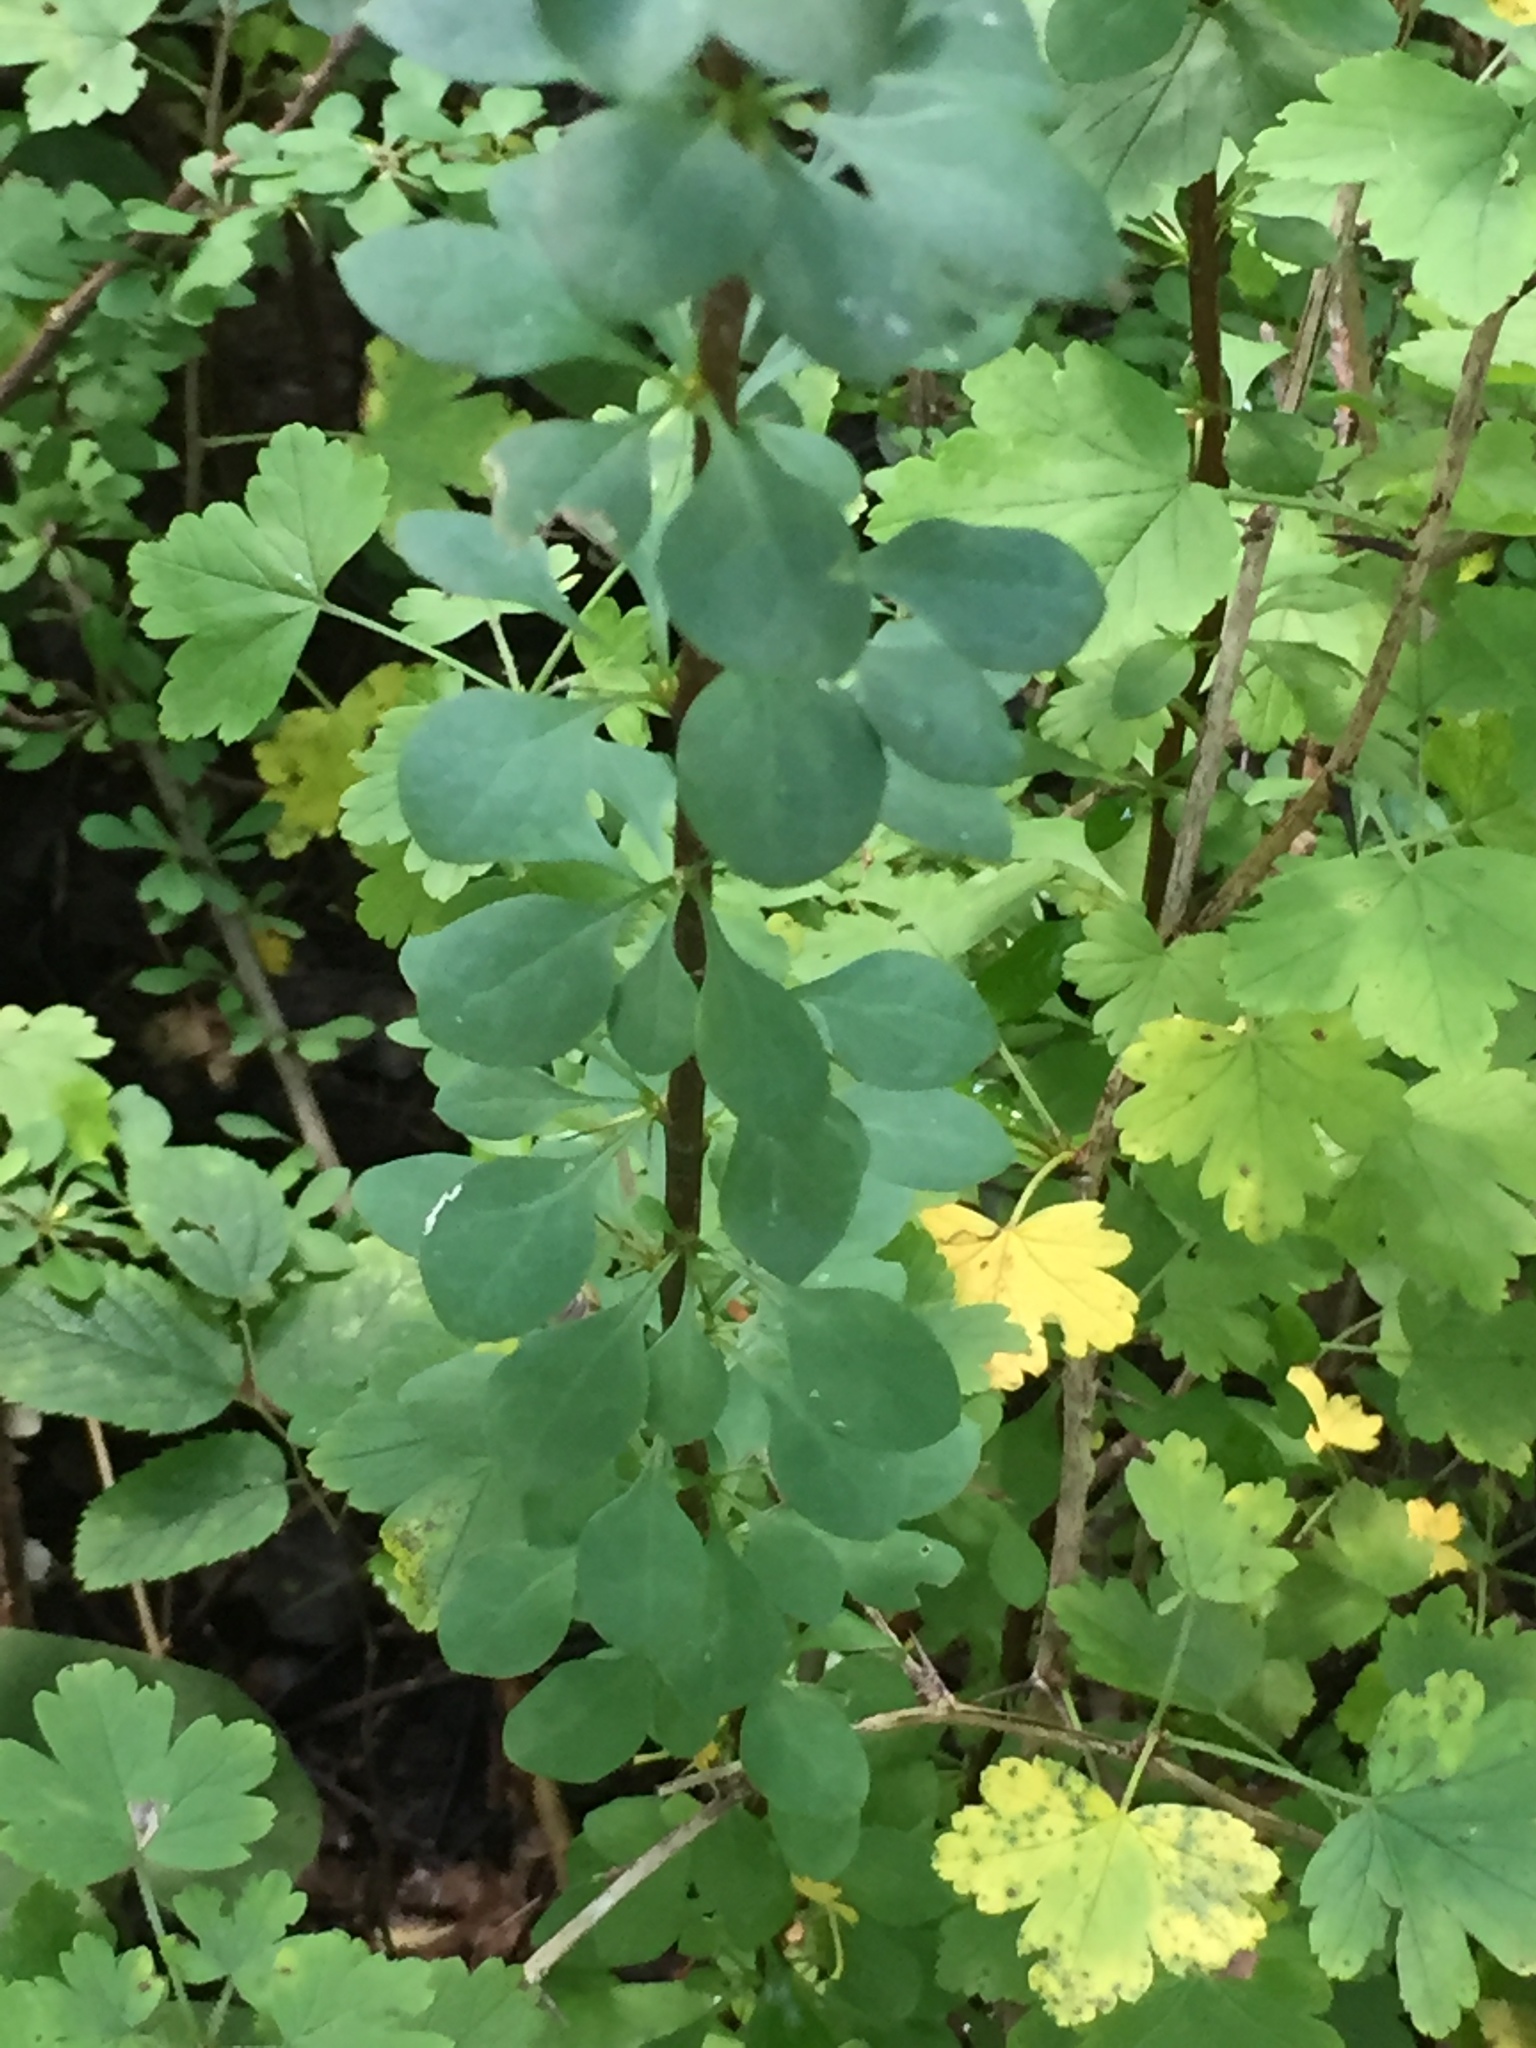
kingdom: Plantae
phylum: Tracheophyta
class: Magnoliopsida
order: Ranunculales
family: Berberidaceae
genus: Berberis
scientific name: Berberis thunbergii
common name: Japanese barberry
